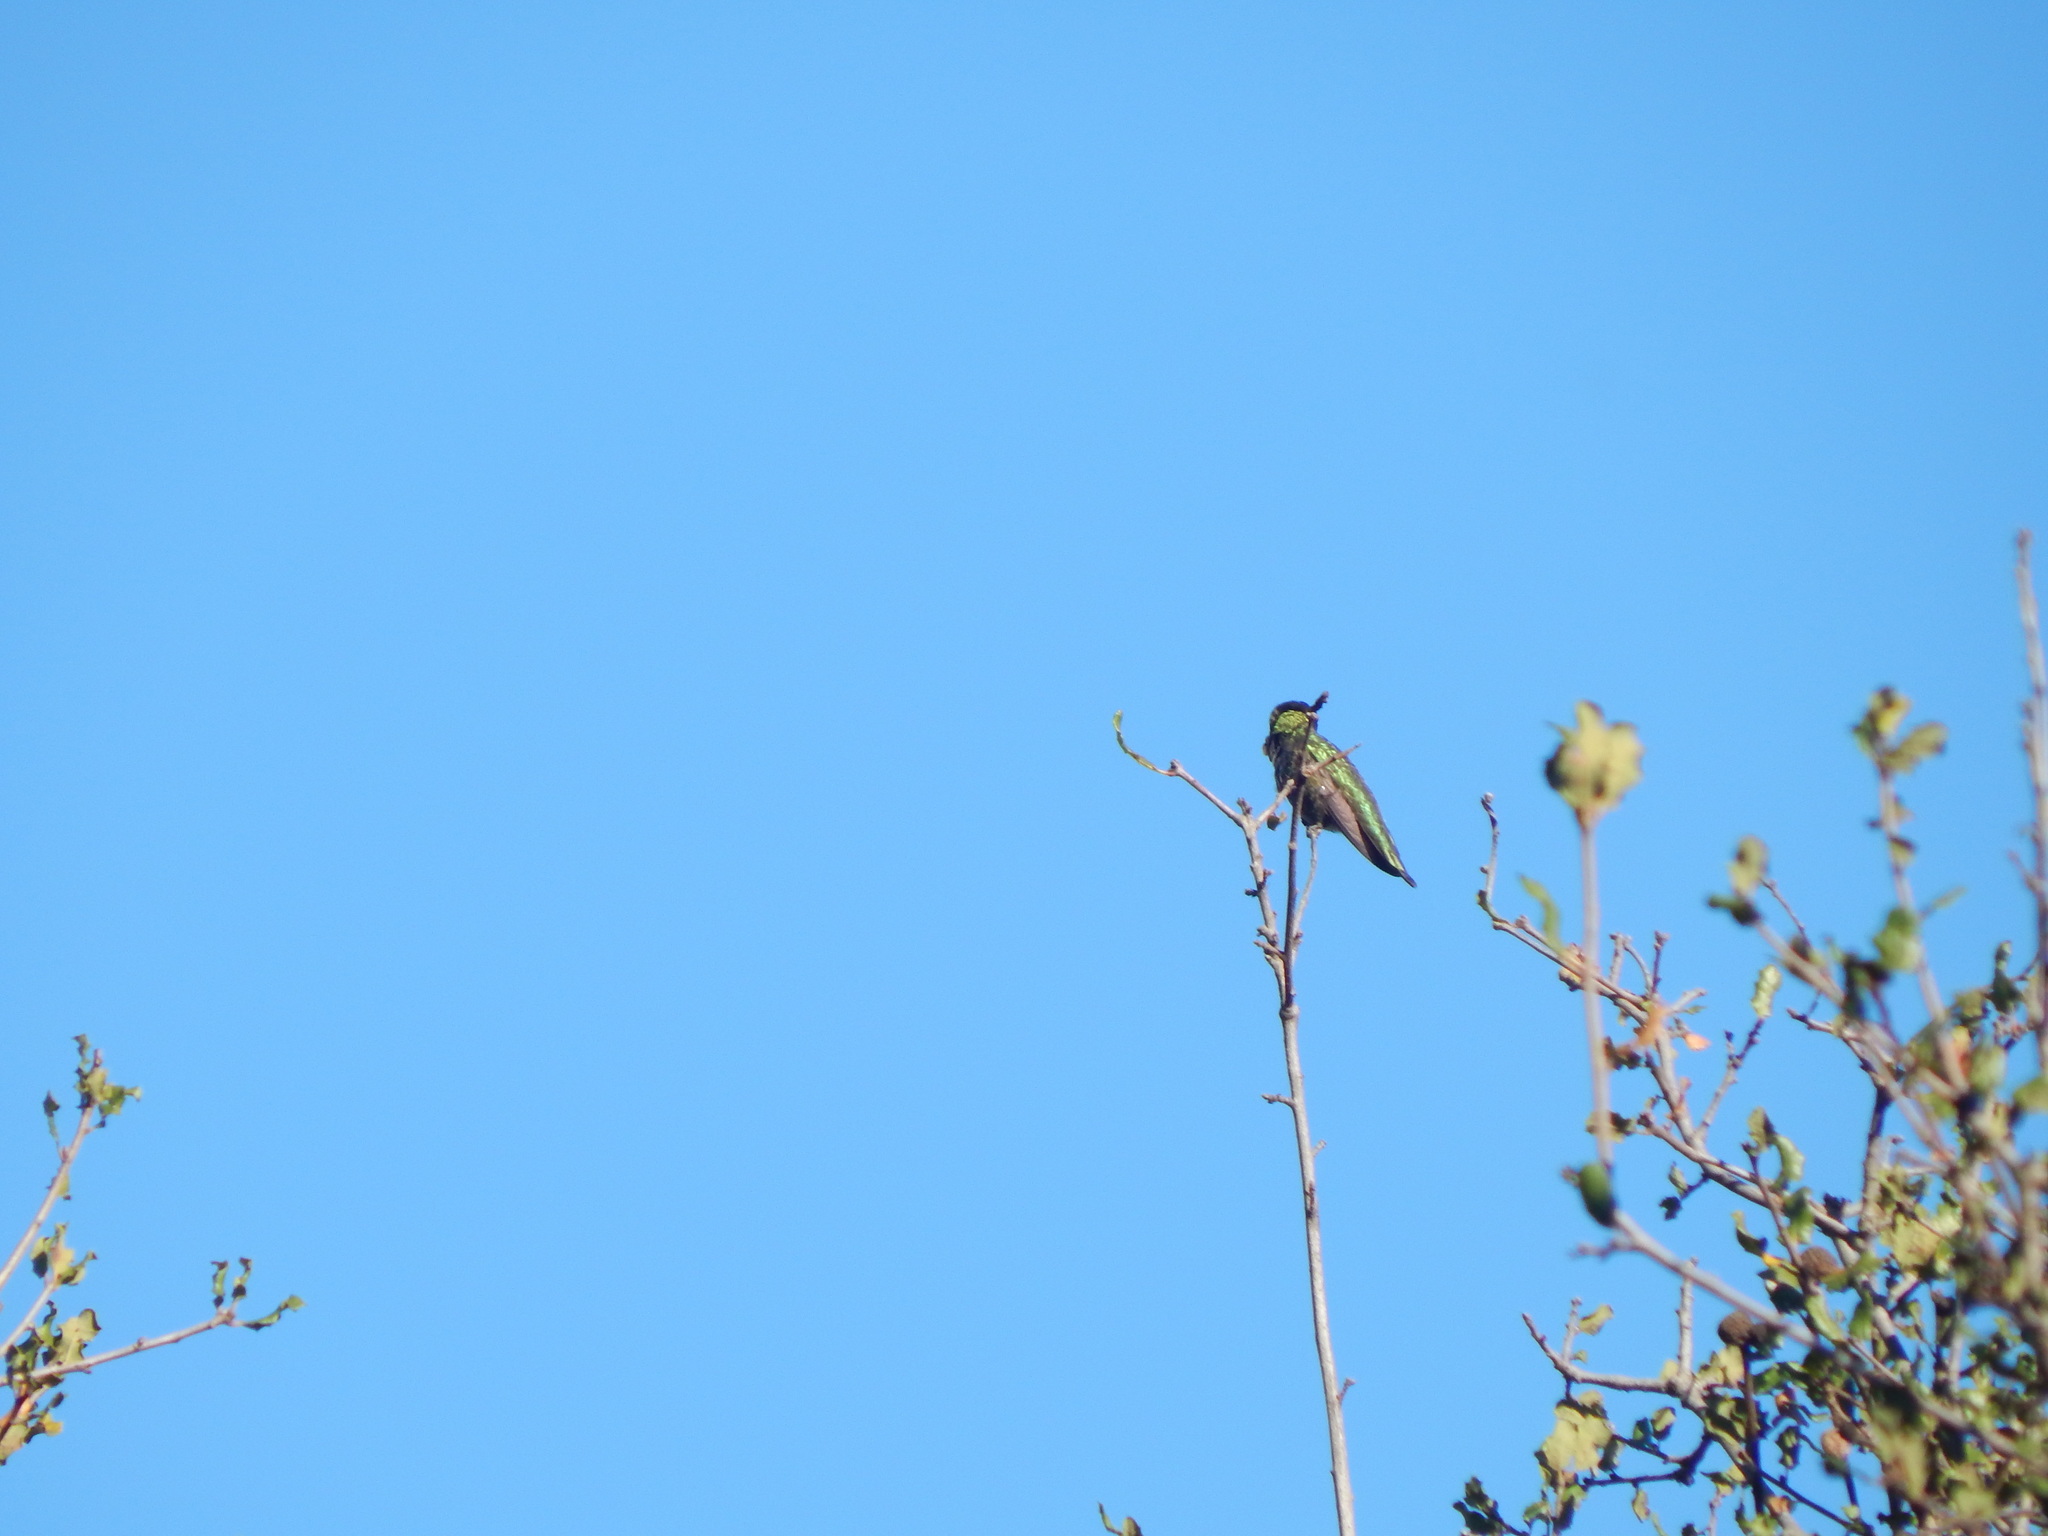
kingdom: Animalia
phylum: Chordata
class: Aves
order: Apodiformes
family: Trochilidae
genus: Calypte
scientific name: Calypte anna
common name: Anna's hummingbird
